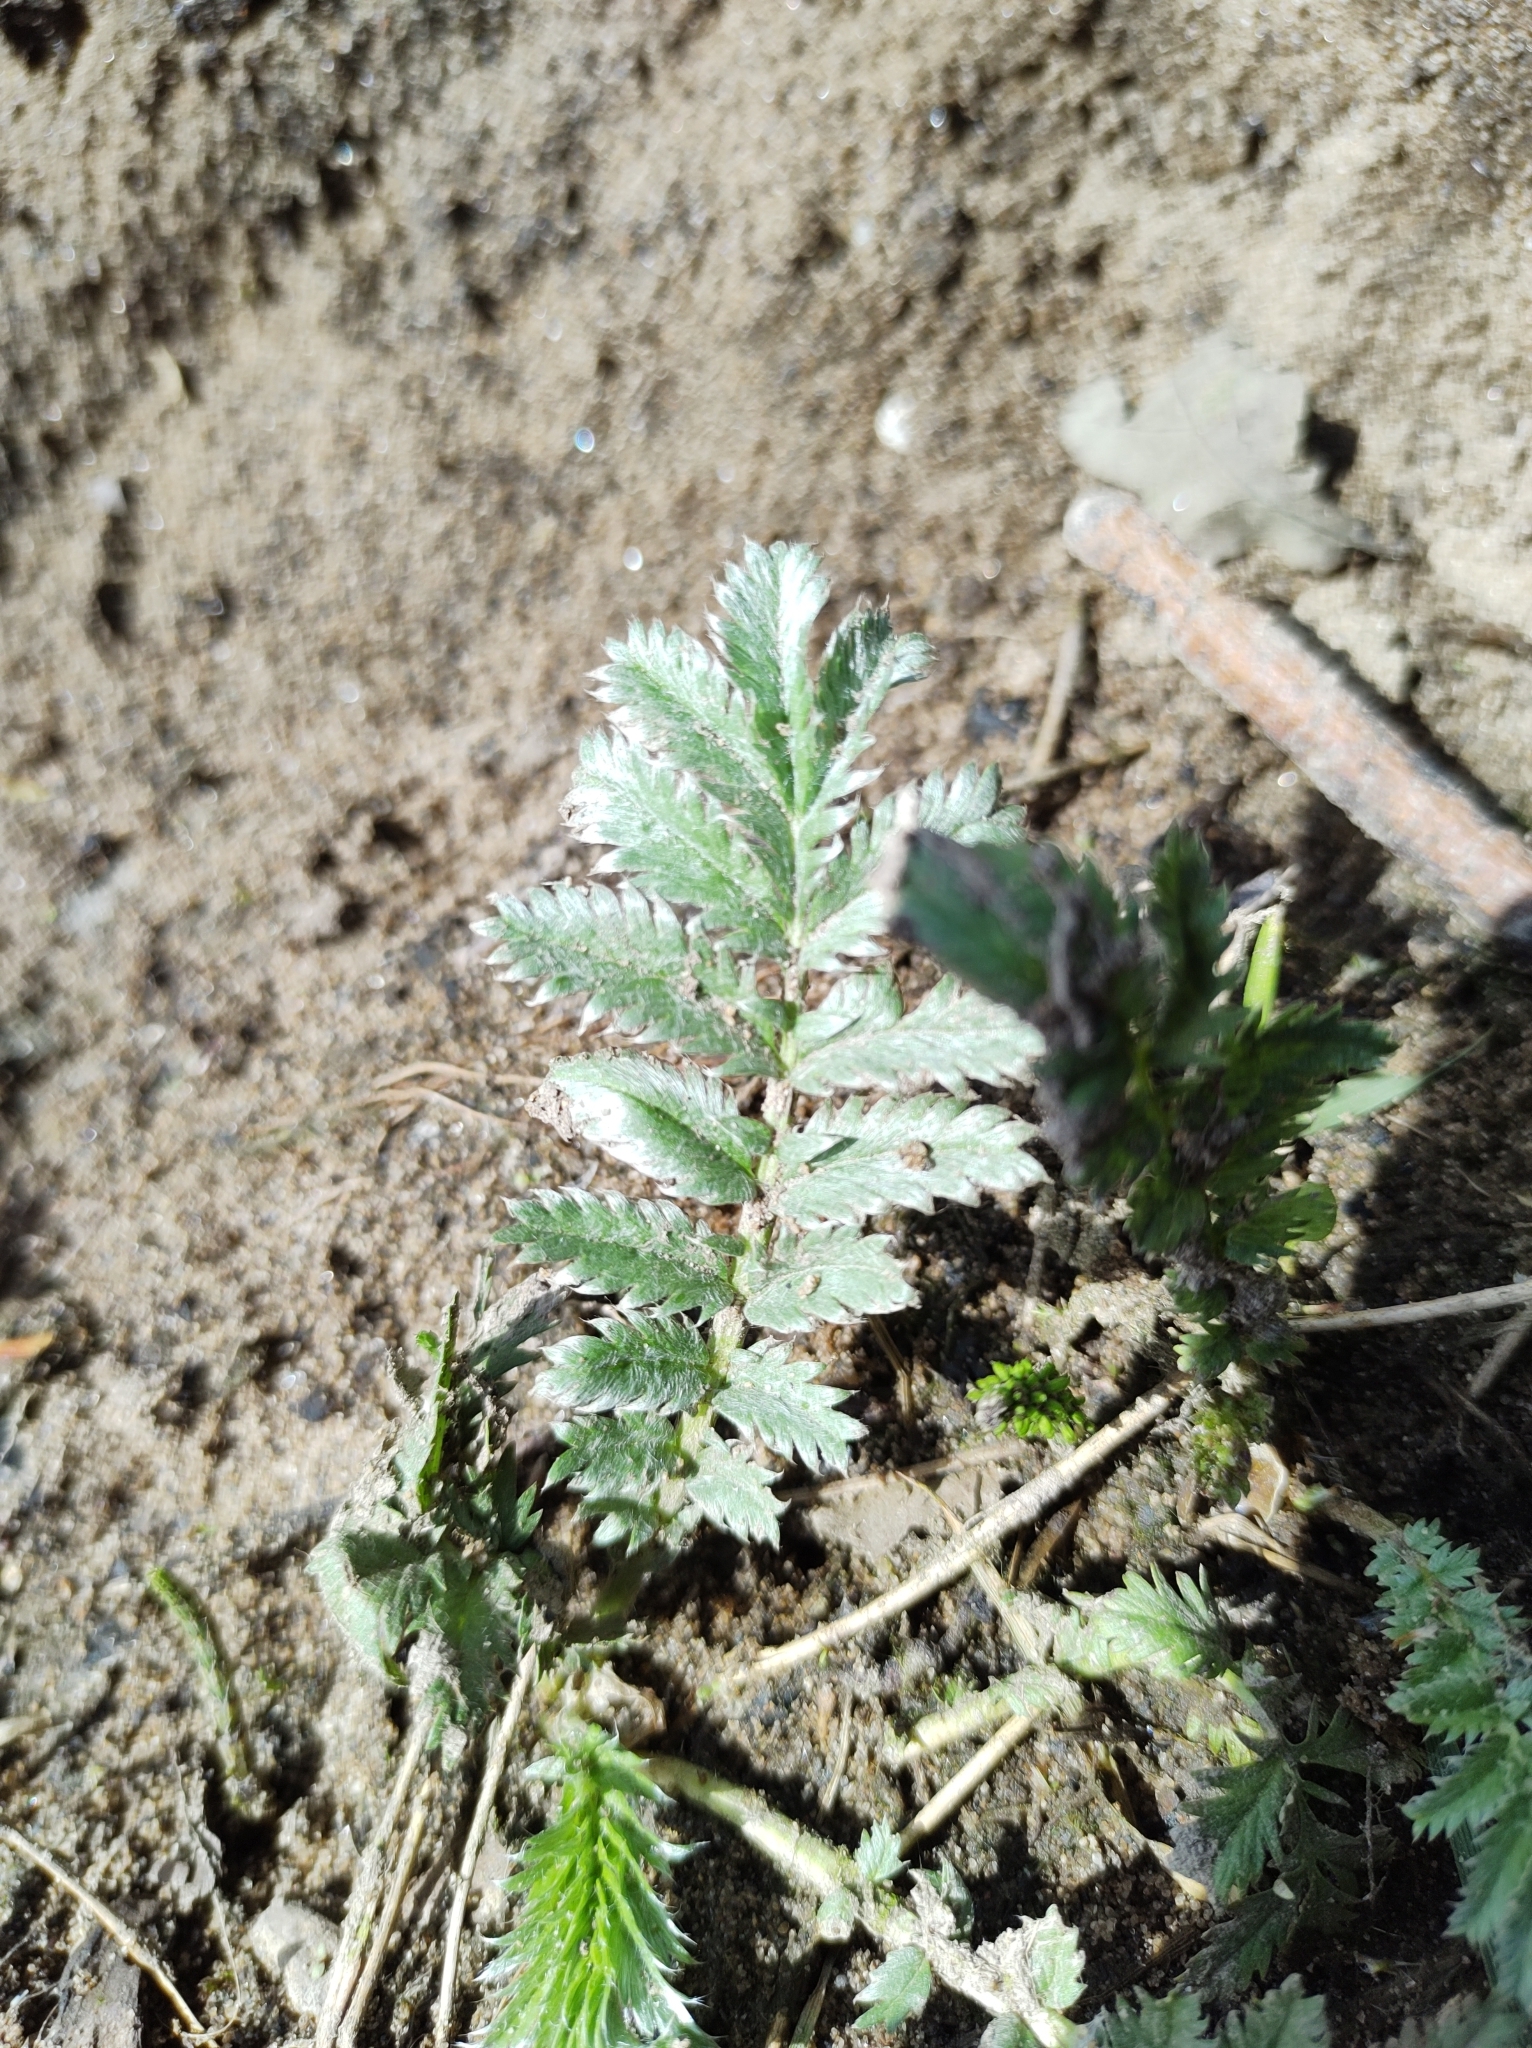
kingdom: Plantae
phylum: Tracheophyta
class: Magnoliopsida
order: Rosales
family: Rosaceae
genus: Argentina
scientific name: Argentina anserina
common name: Common silverweed
